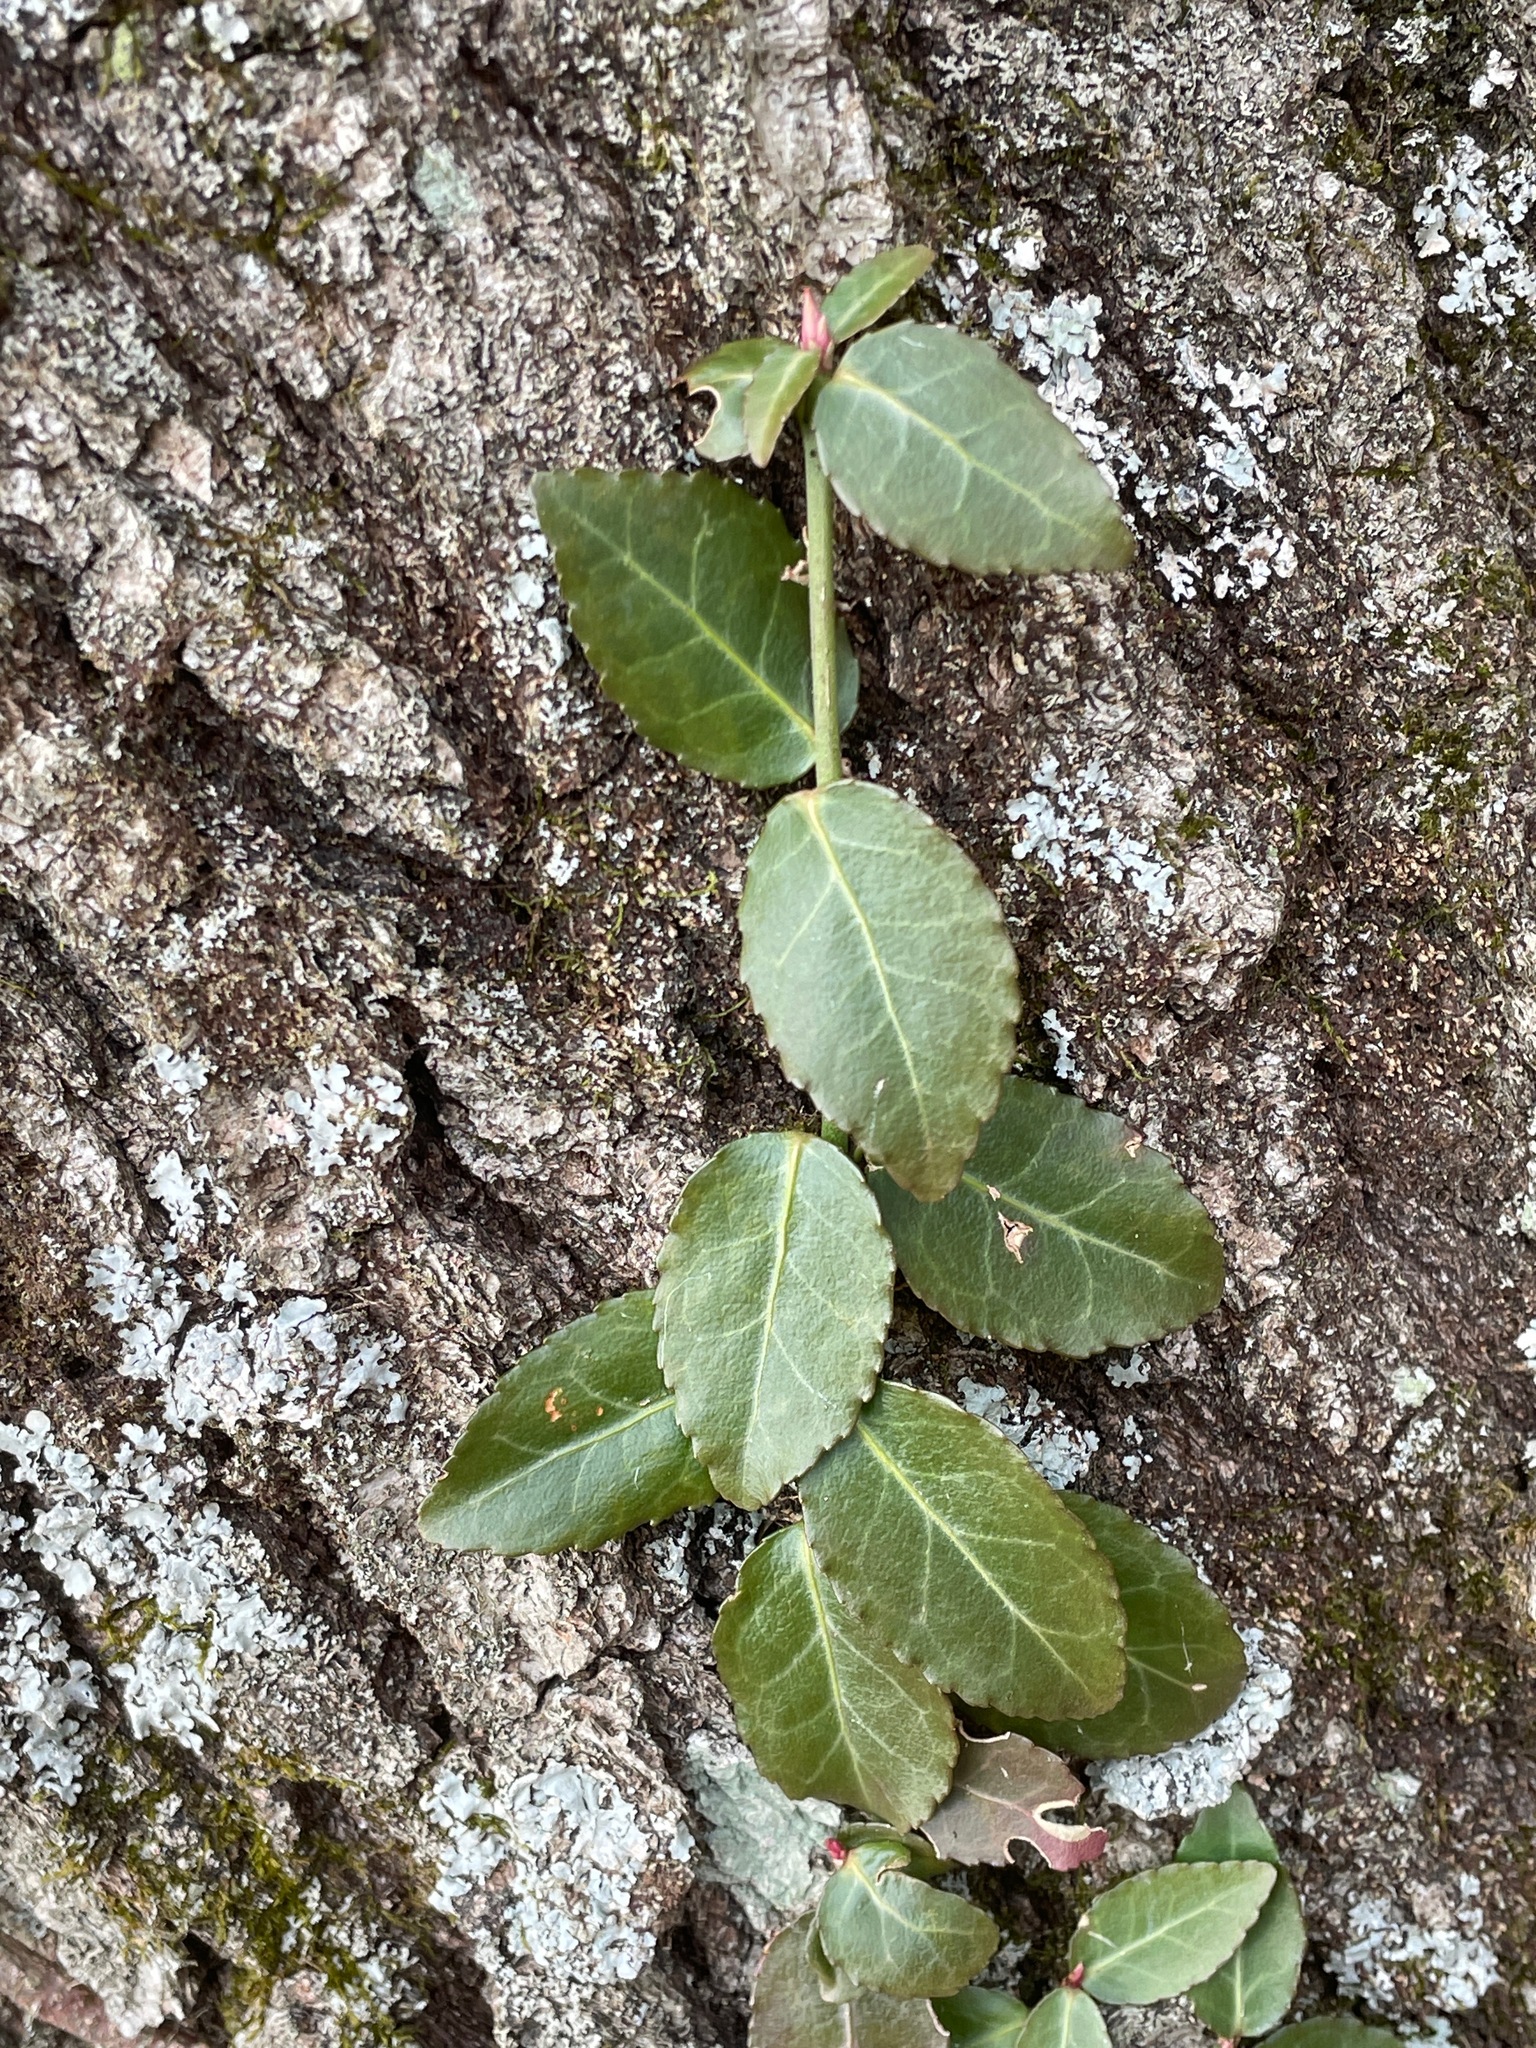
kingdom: Plantae
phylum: Tracheophyta
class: Magnoliopsida
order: Celastrales
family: Celastraceae
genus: Euonymus
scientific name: Euonymus fortunei
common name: Climbing euonymus
